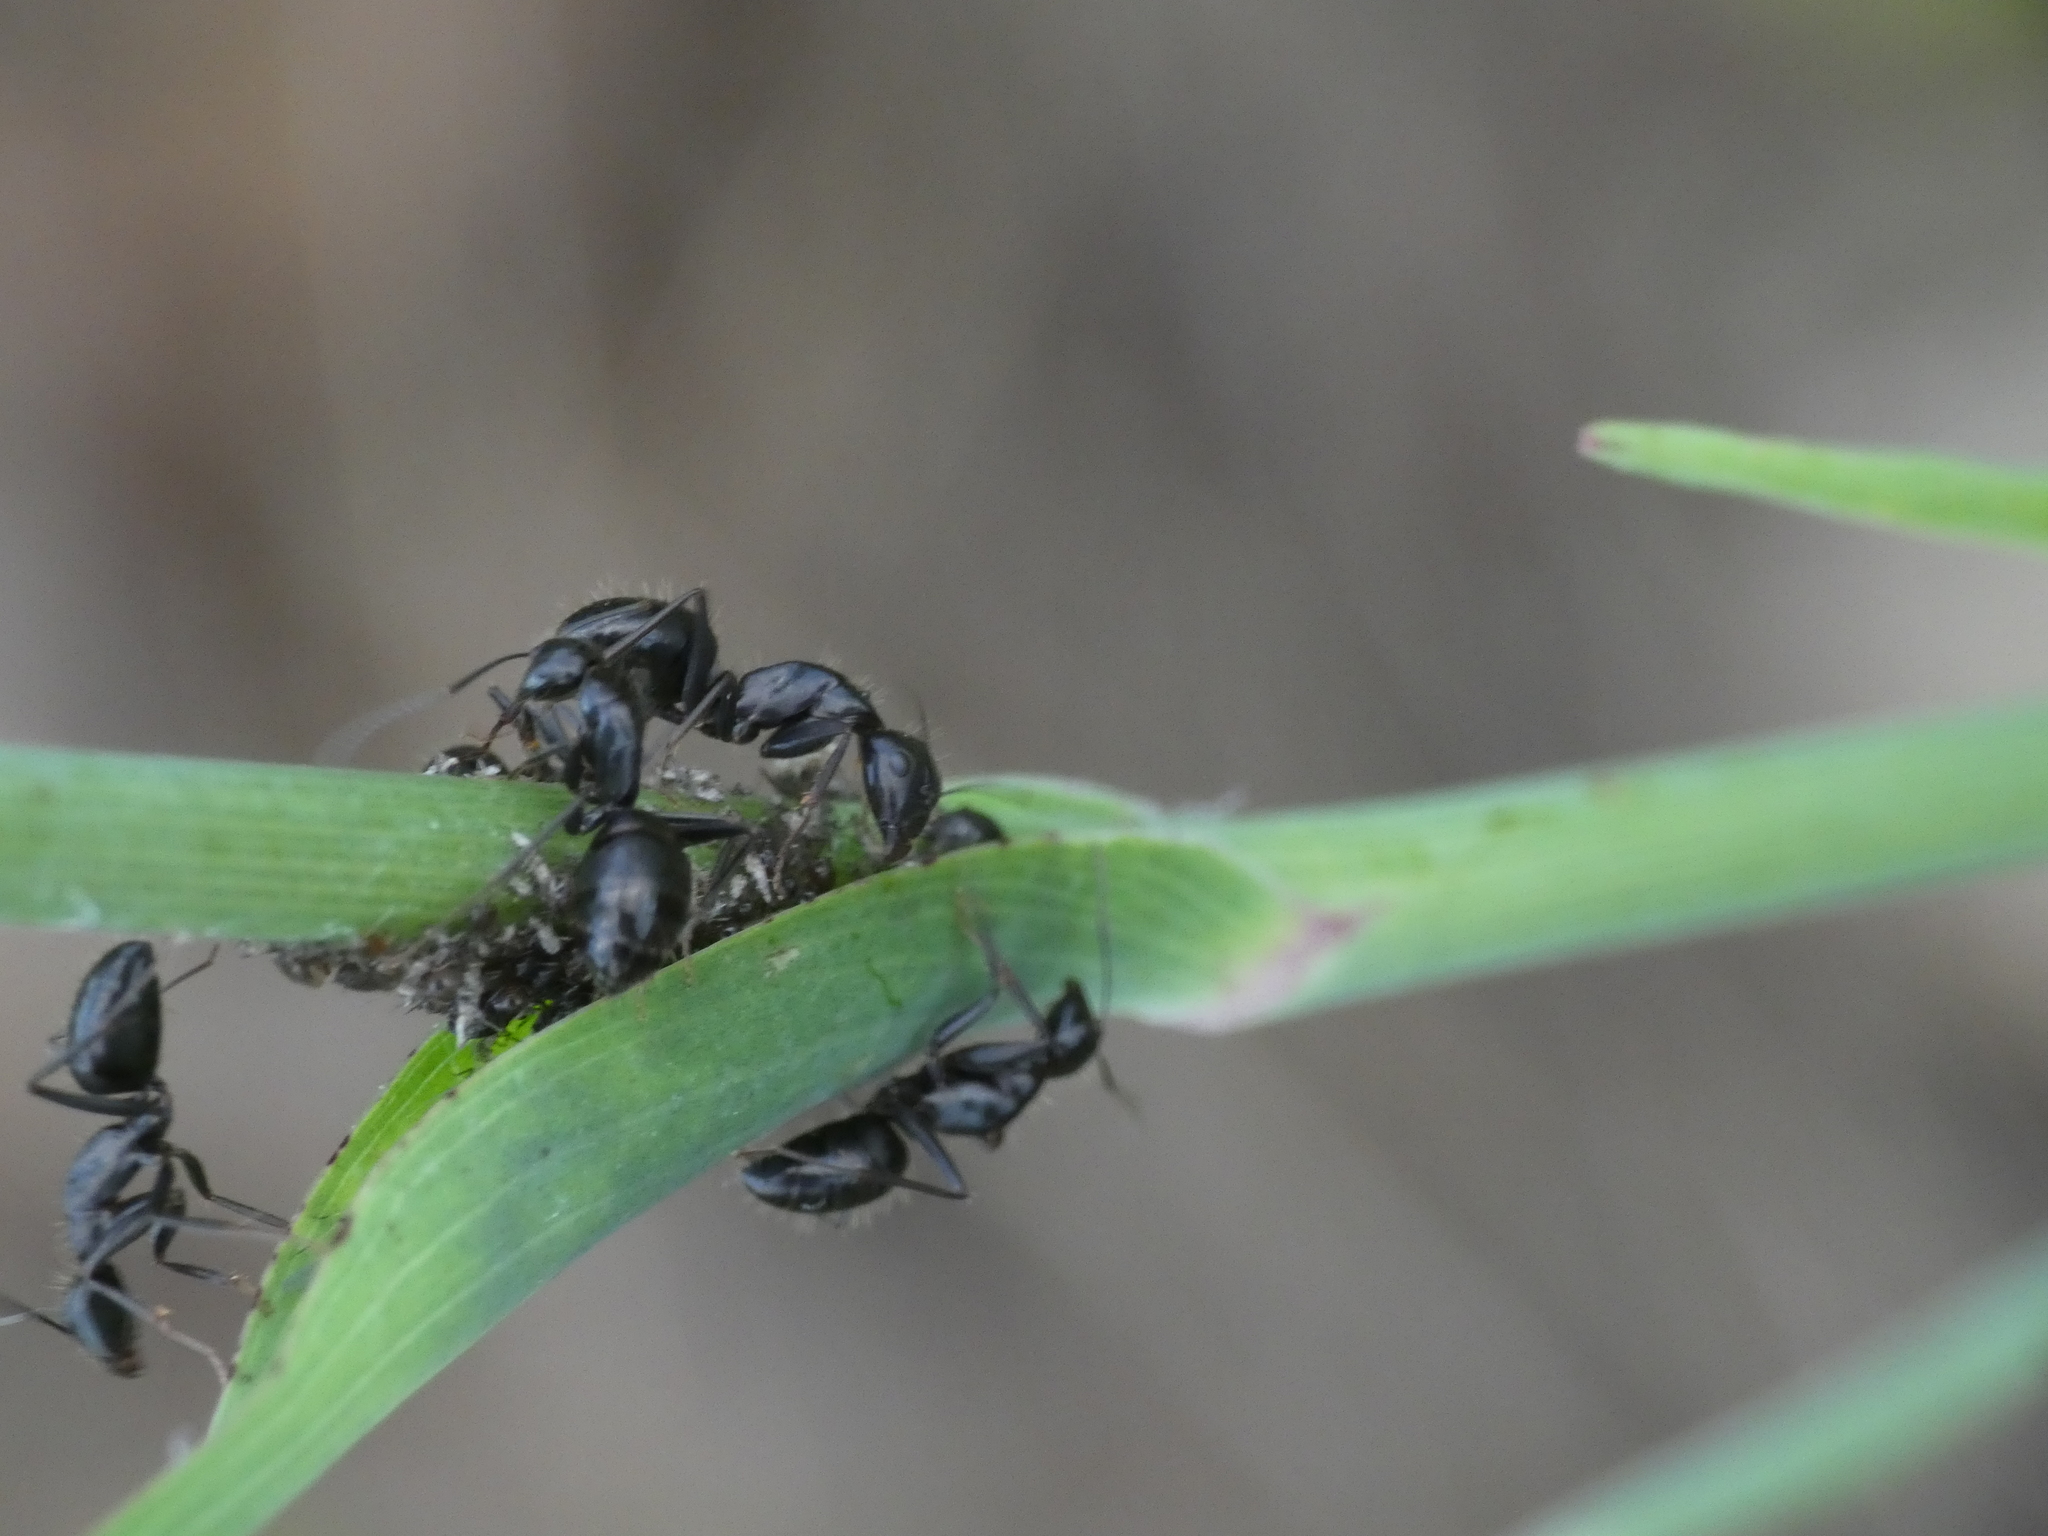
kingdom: Animalia
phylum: Arthropoda
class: Insecta
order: Hymenoptera
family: Formicidae
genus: Camponotus
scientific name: Camponotus vagus
